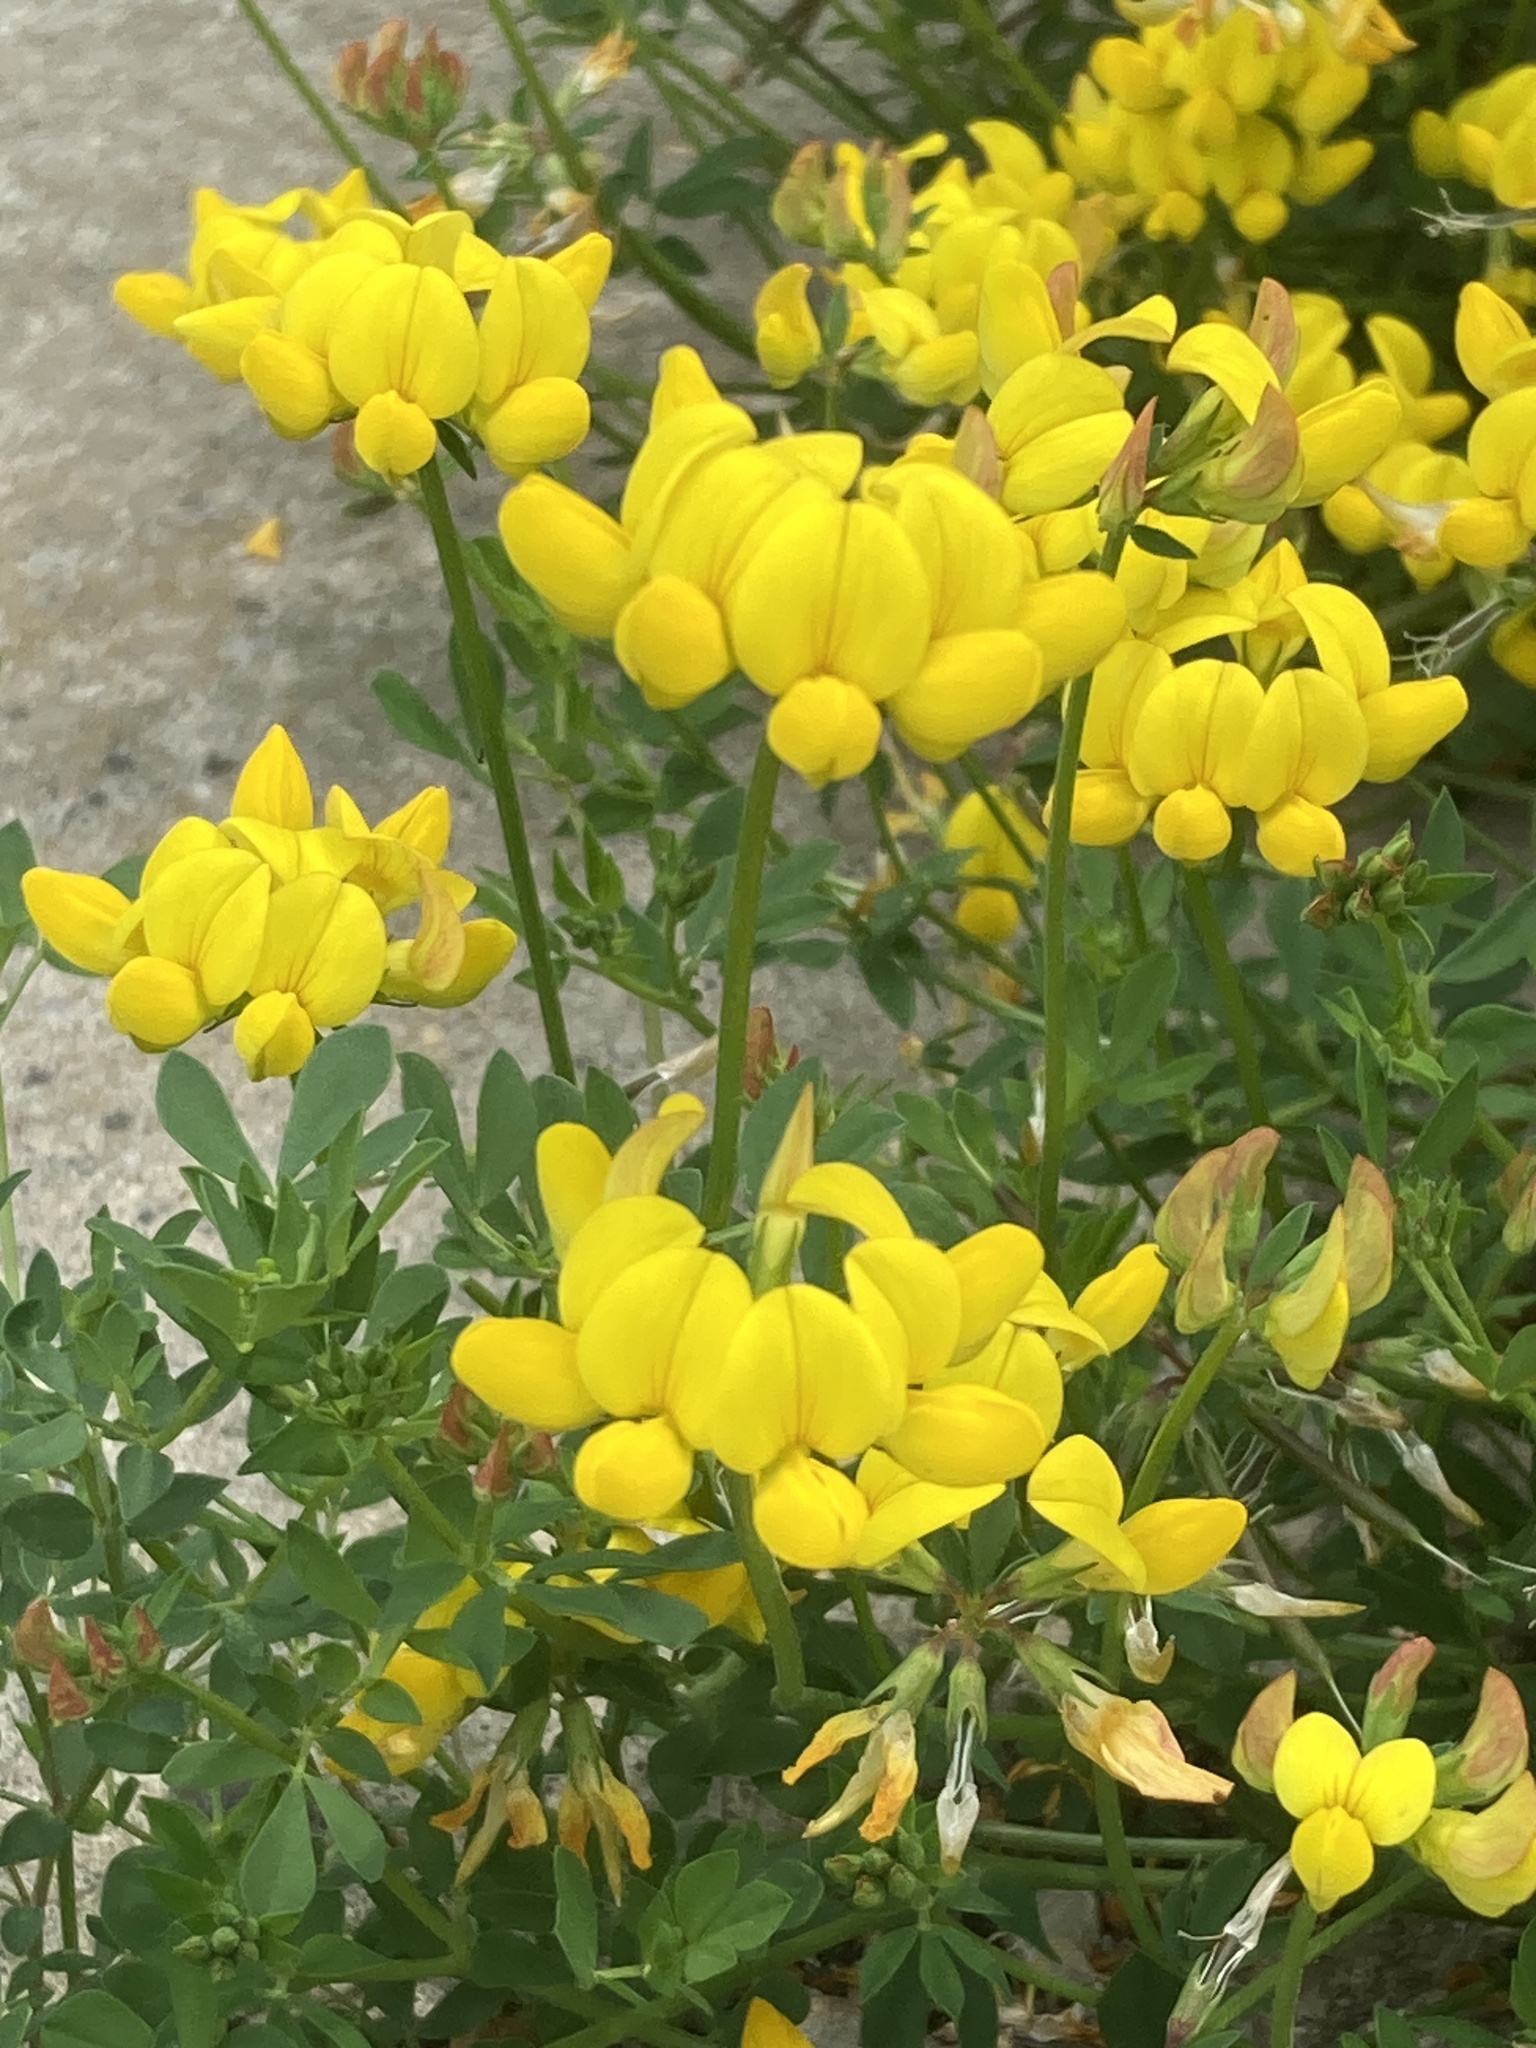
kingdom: Plantae
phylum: Tracheophyta
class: Magnoliopsida
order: Fabales
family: Fabaceae
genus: Lotus
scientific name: Lotus corniculatus
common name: Common bird's-foot-trefoil
